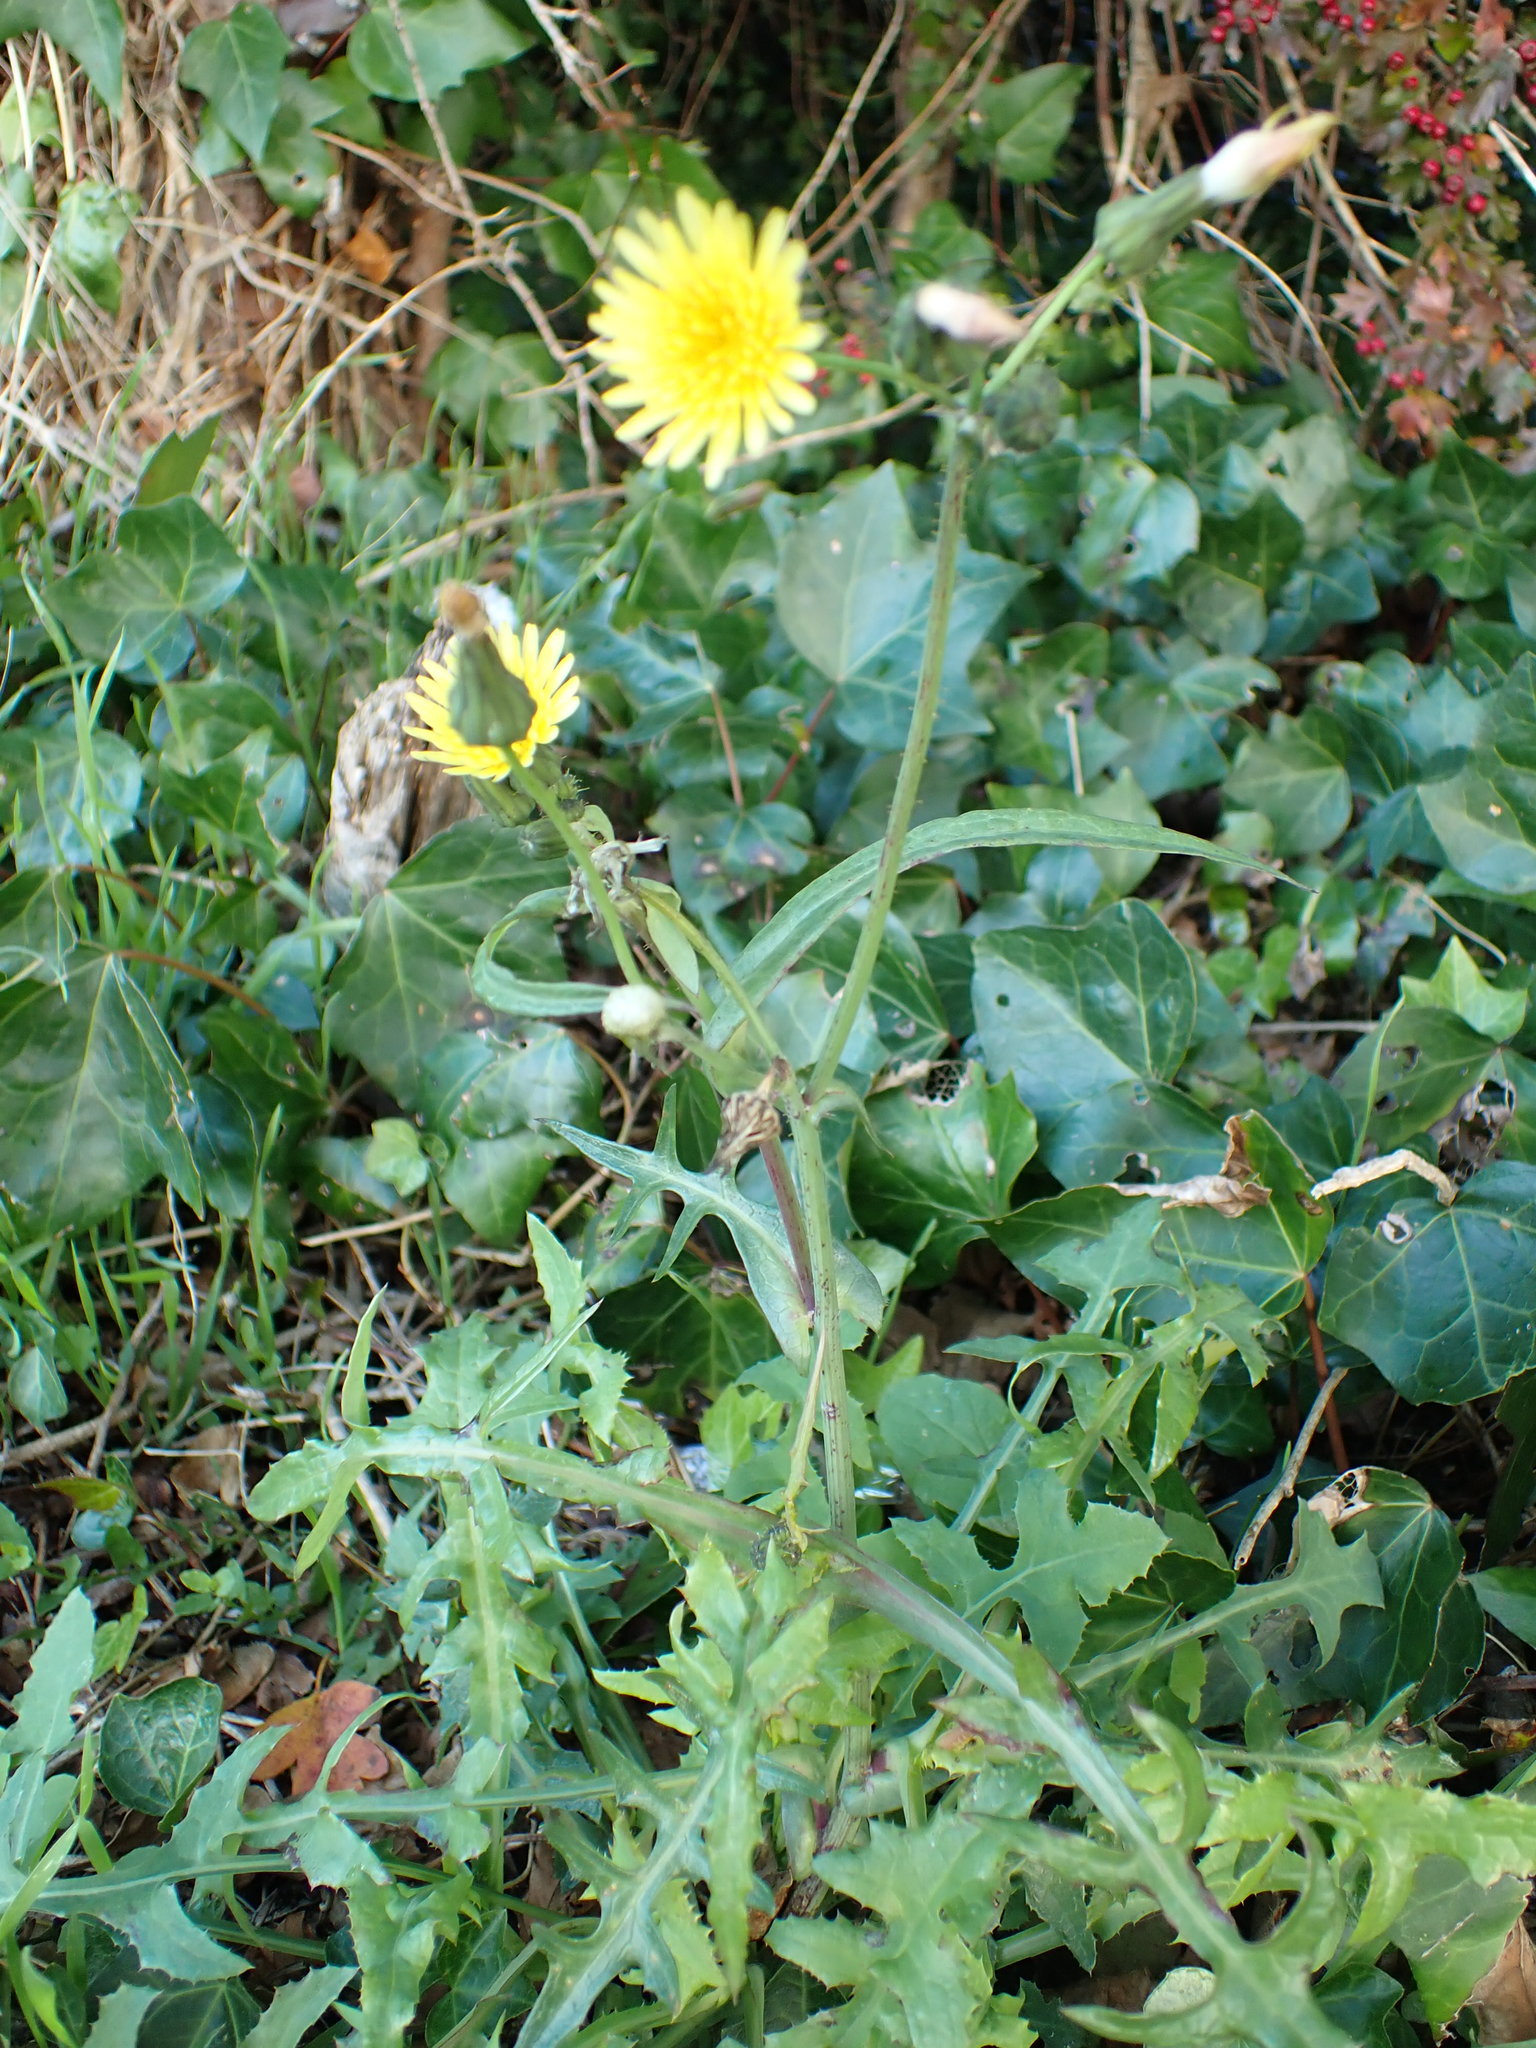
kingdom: Plantae
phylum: Tracheophyta
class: Magnoliopsida
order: Asterales
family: Asteraceae
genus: Sonchus
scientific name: Sonchus oleraceus
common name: Common sowthistle
